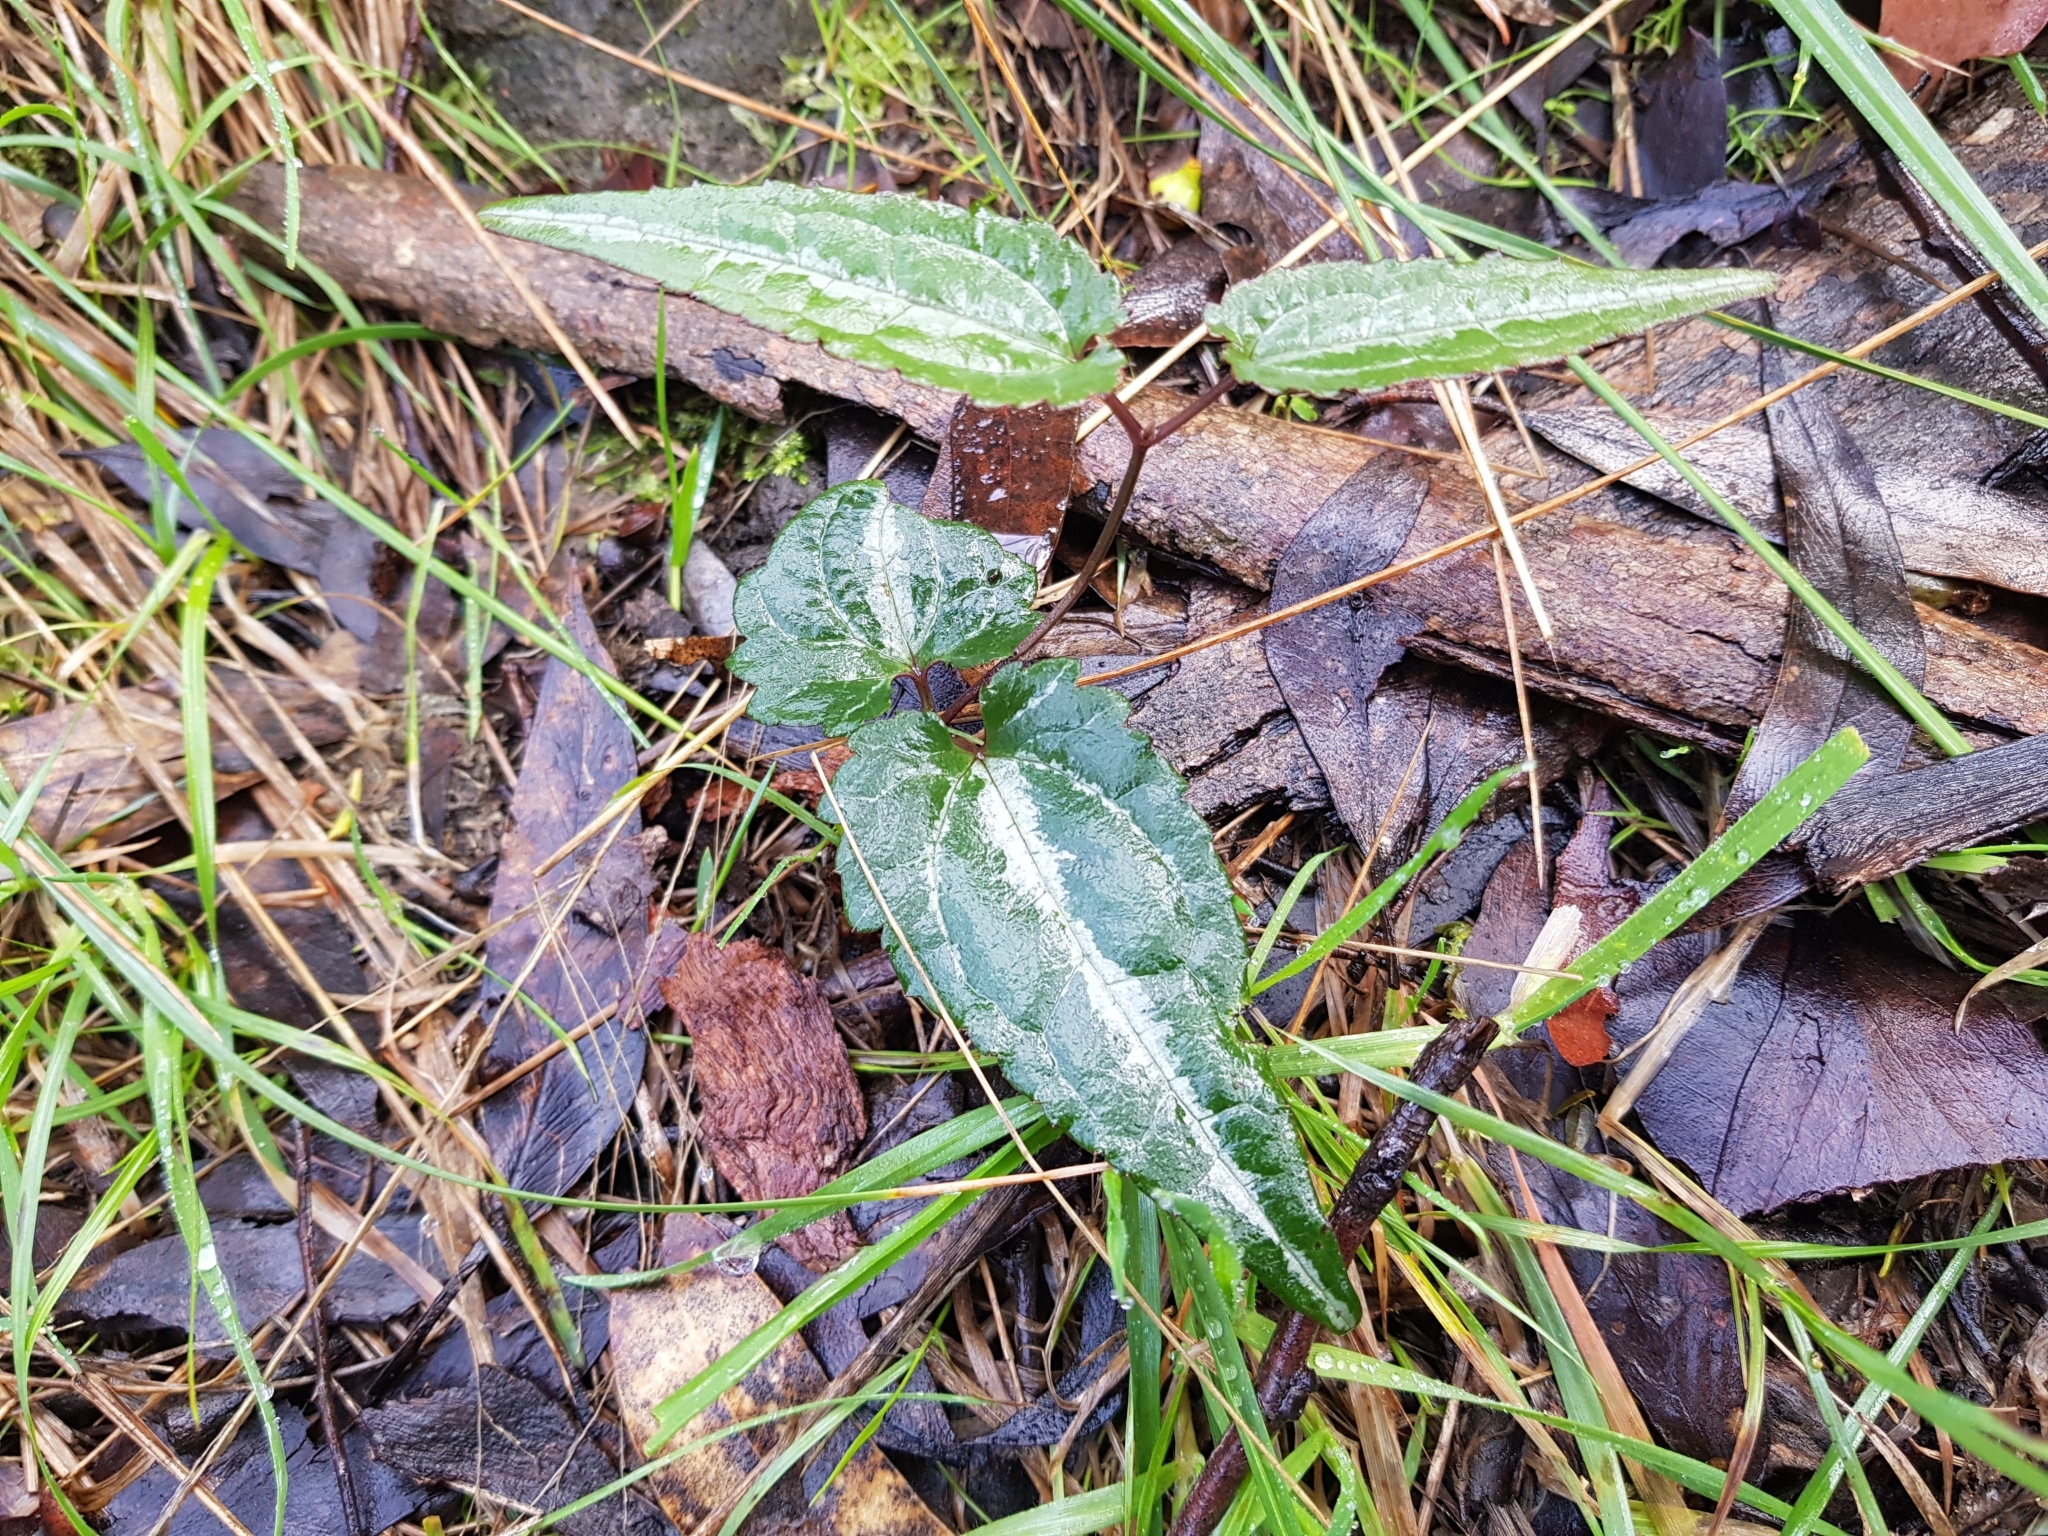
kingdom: Plantae
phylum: Tracheophyta
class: Magnoliopsida
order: Ranunculales
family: Ranunculaceae
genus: Clematis
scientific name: Clematis aristata
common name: Mountain clematis
